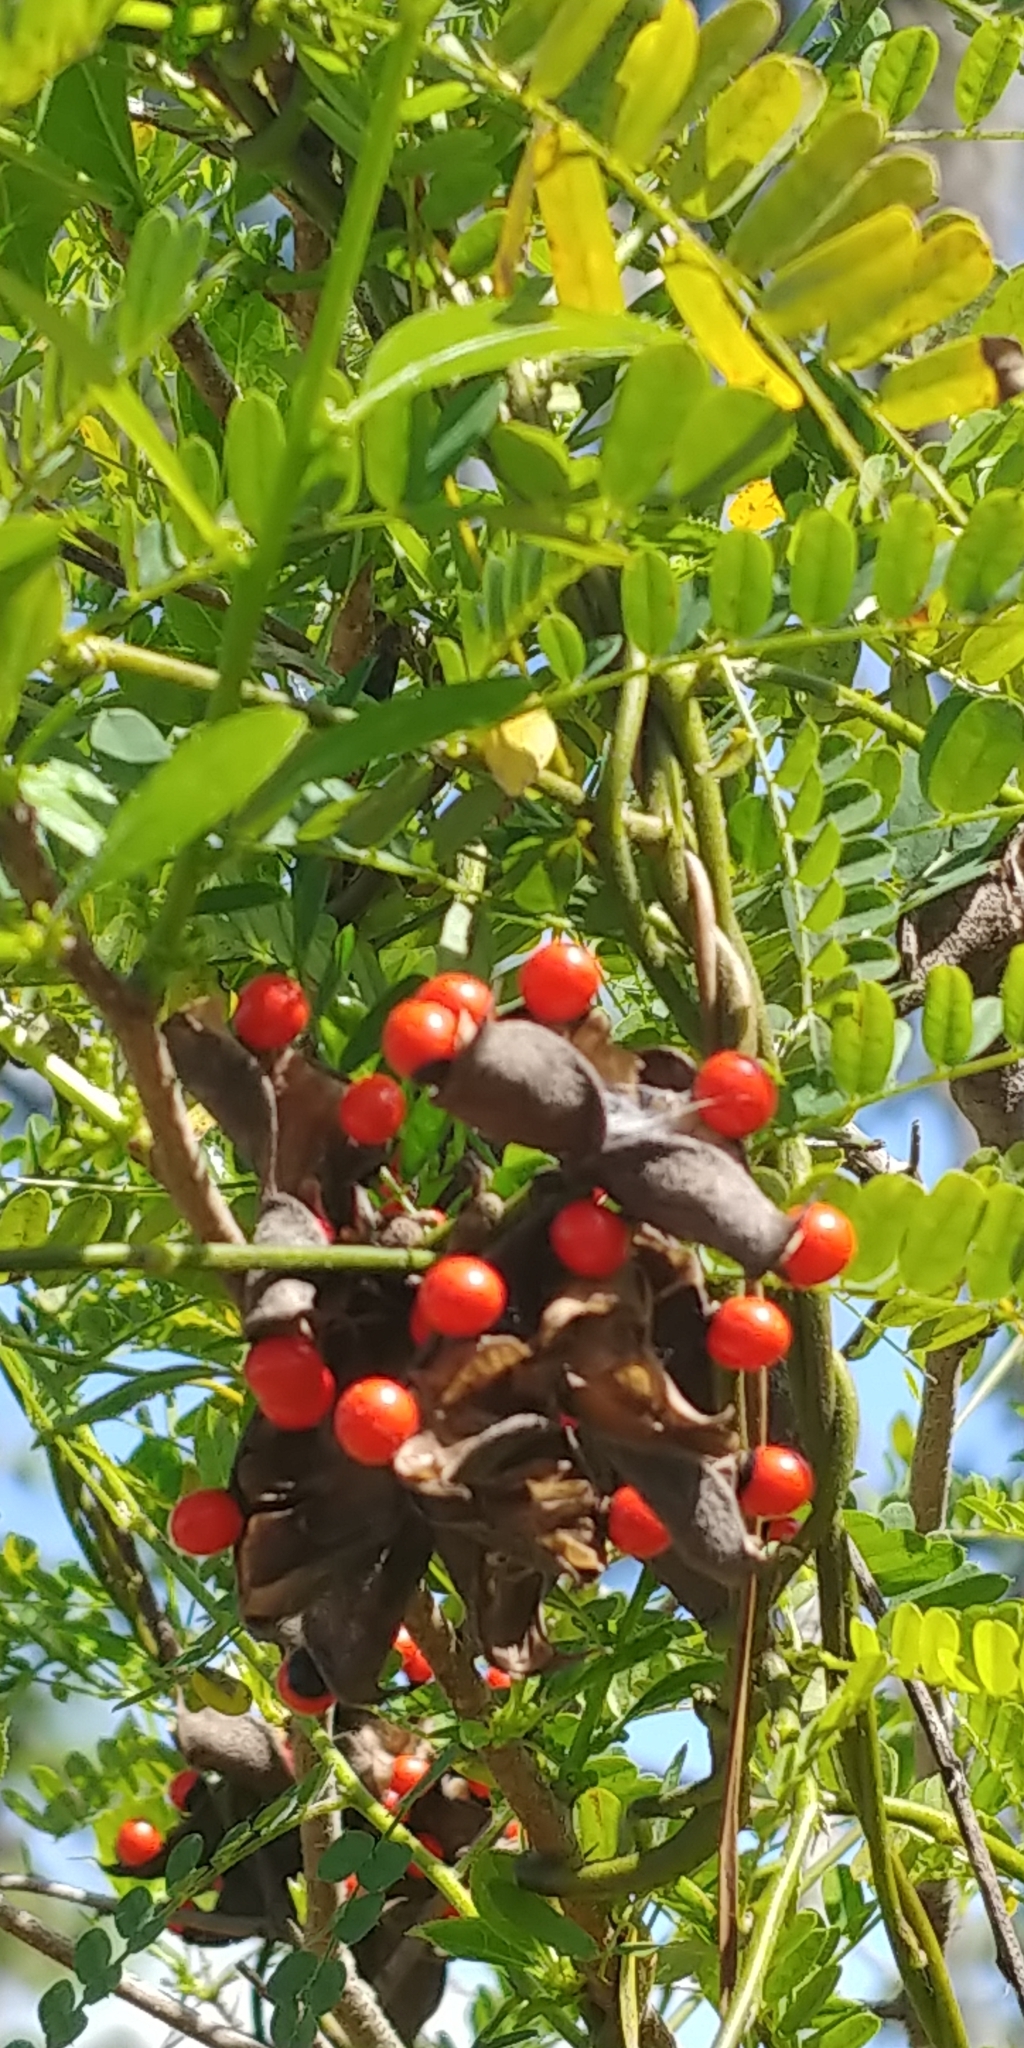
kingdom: Plantae
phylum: Tracheophyta
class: Magnoliopsida
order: Fabales
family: Fabaceae
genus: Abrus
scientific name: Abrus precatorius
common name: Rosarypea
